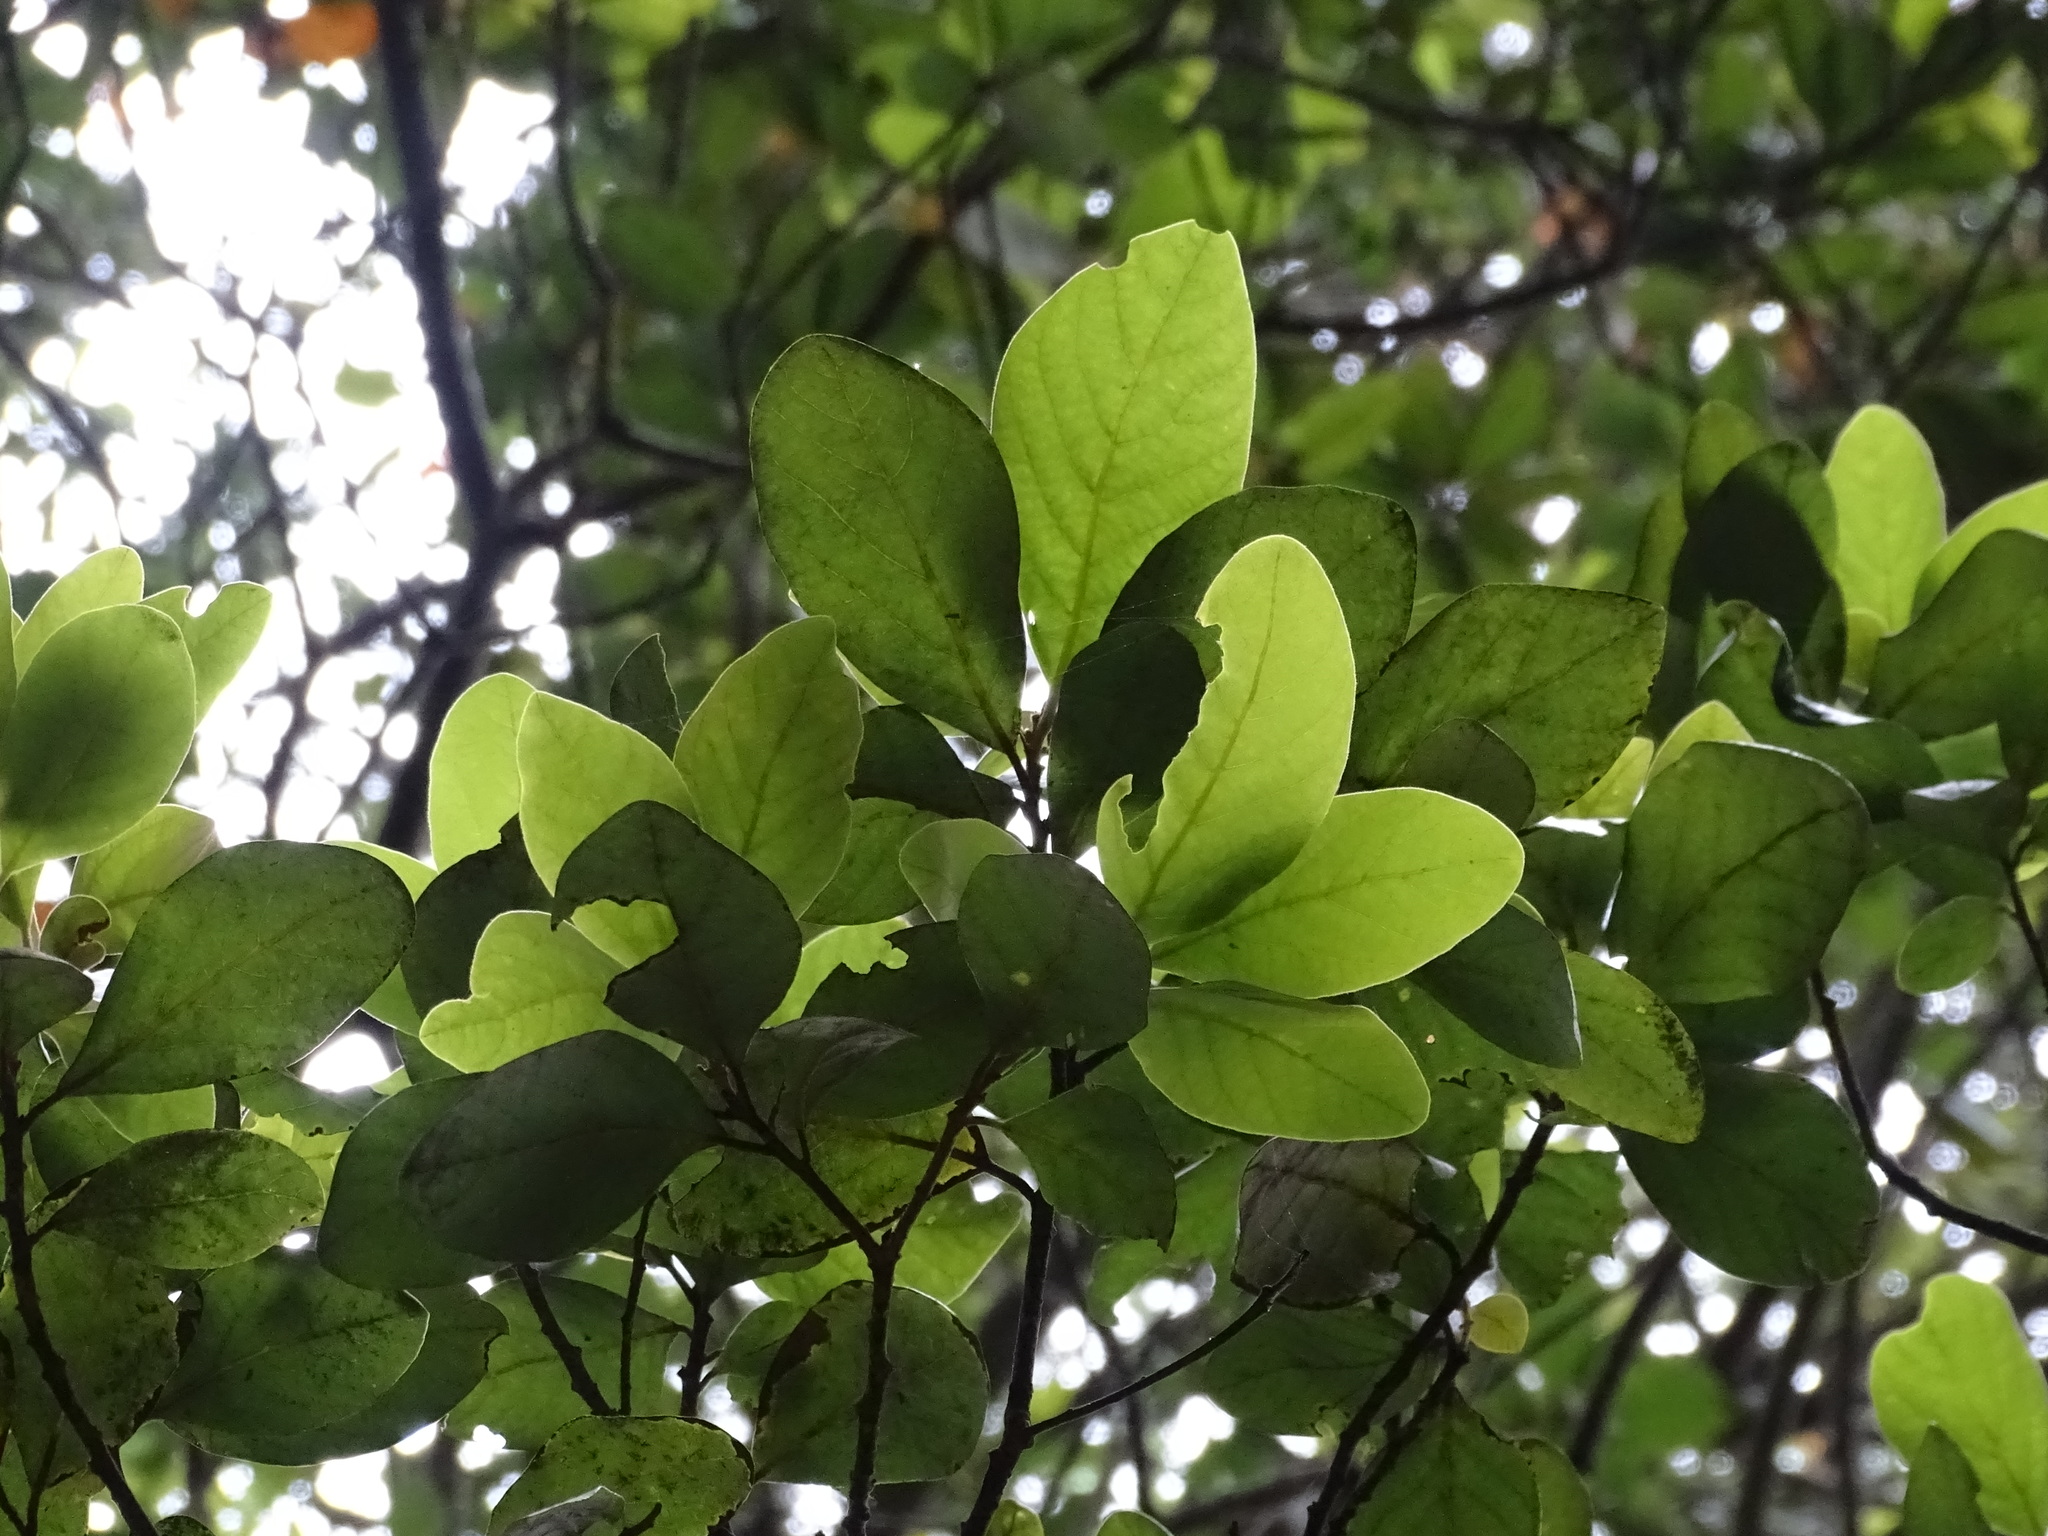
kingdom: Plantae
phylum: Tracheophyta
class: Magnoliopsida
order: Laurales
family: Lauraceae
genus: Persea
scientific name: Persea lingue
